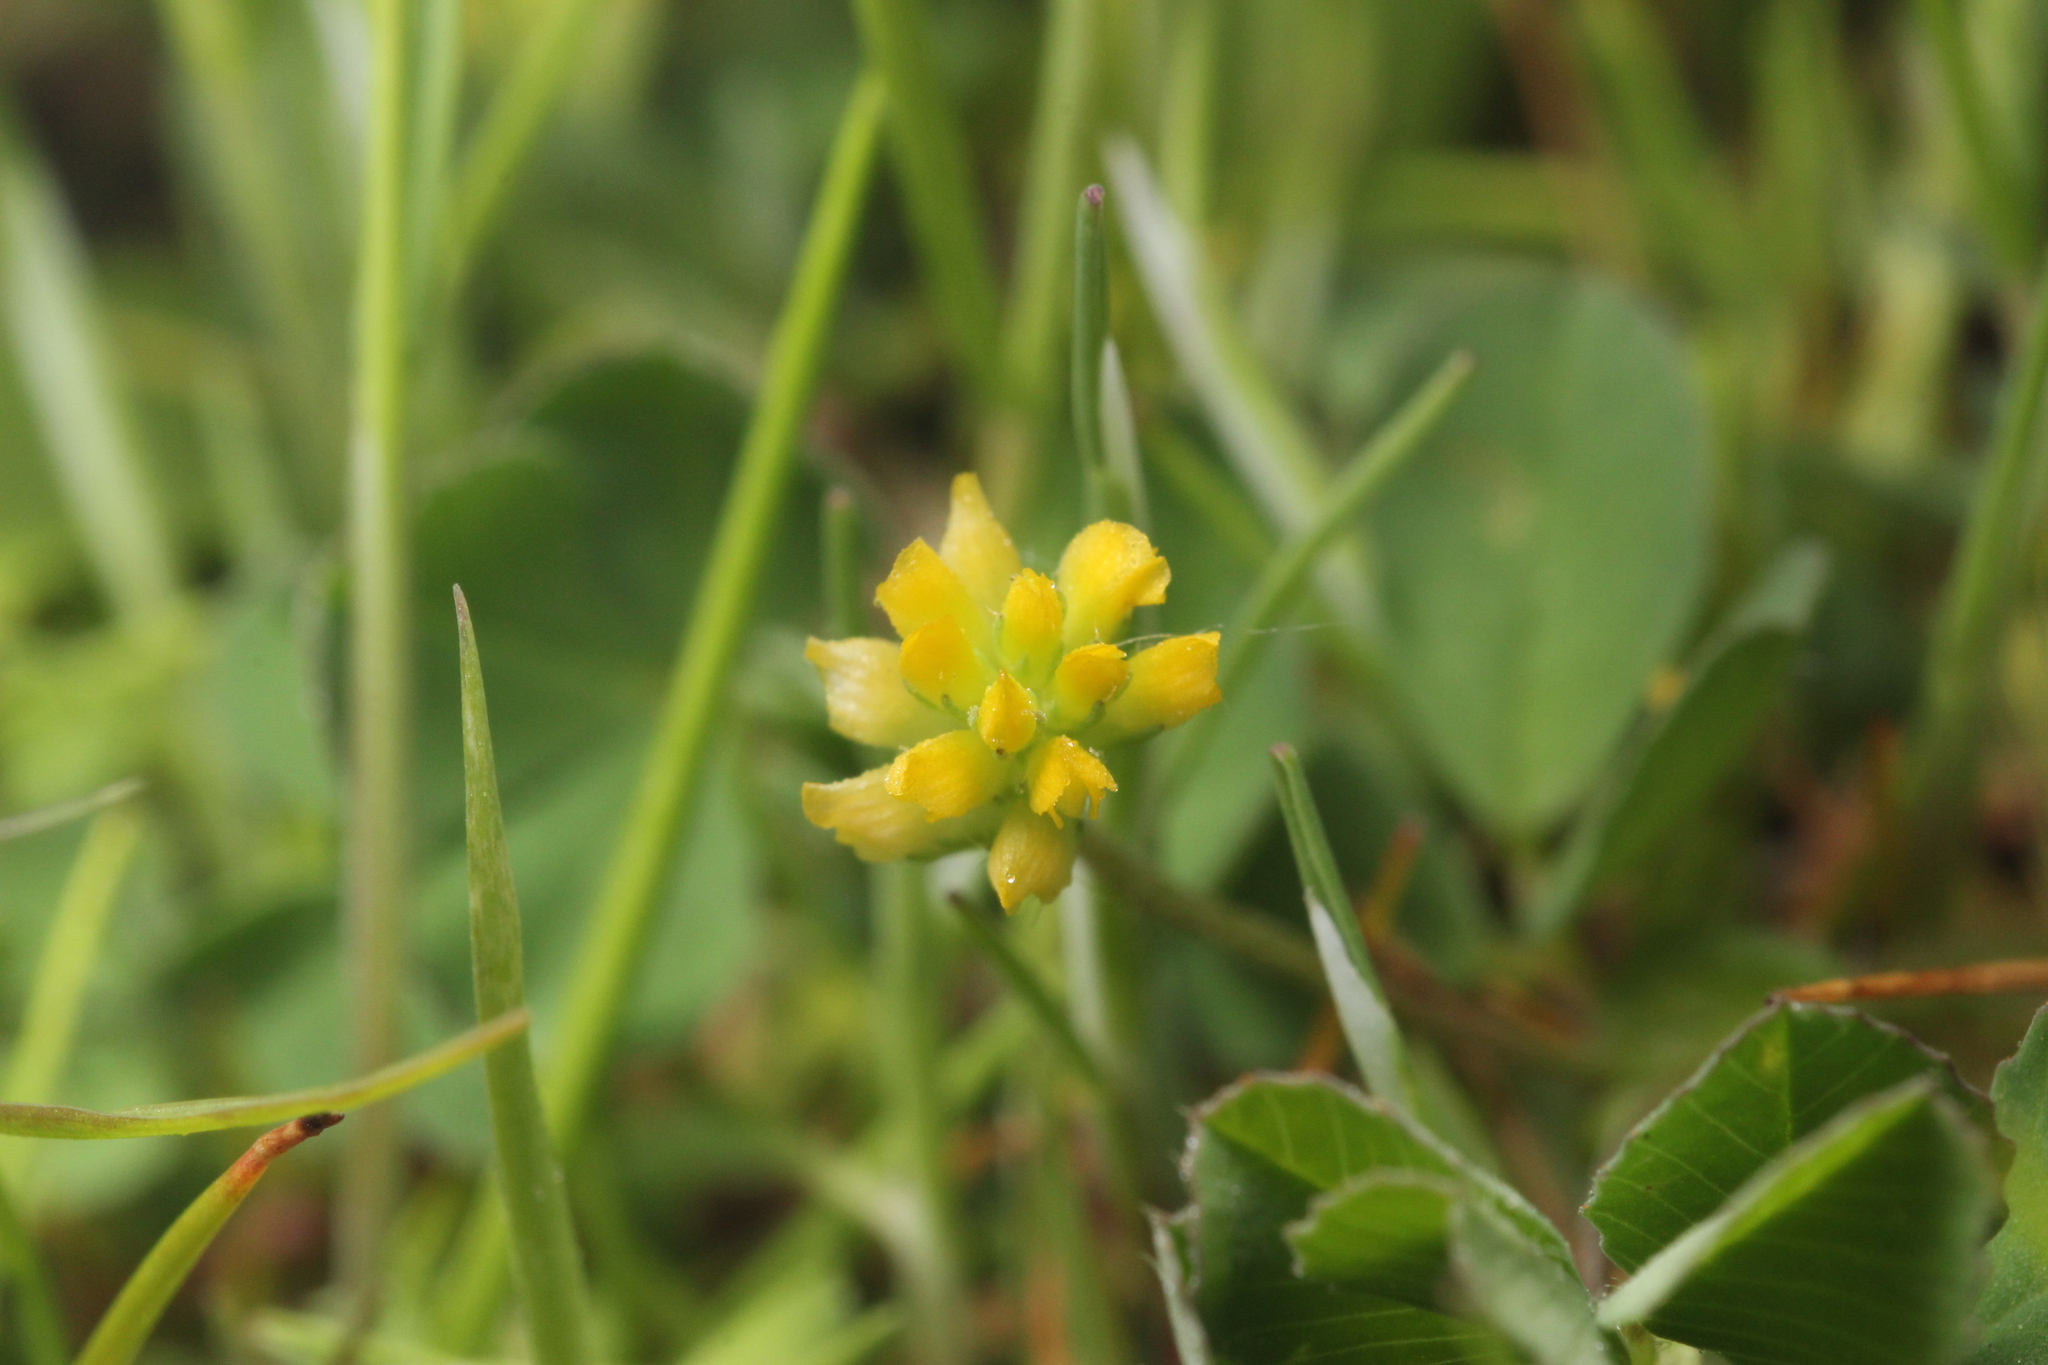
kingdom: Plantae
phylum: Tracheophyta
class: Magnoliopsida
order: Fabales
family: Fabaceae
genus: Trifolium
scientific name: Trifolium dubium
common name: Suckling clover
